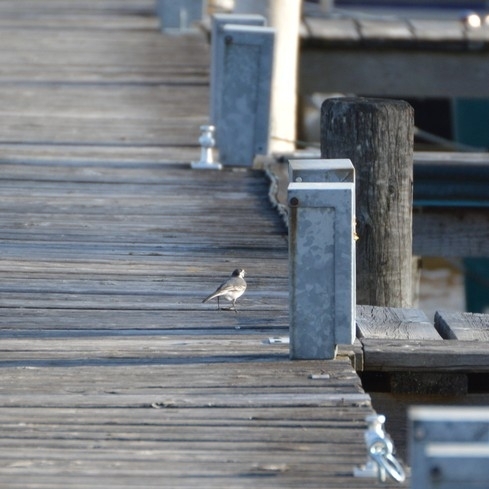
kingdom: Animalia
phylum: Chordata
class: Aves
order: Passeriformes
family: Motacillidae
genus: Motacilla
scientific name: Motacilla alba
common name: White wagtail
